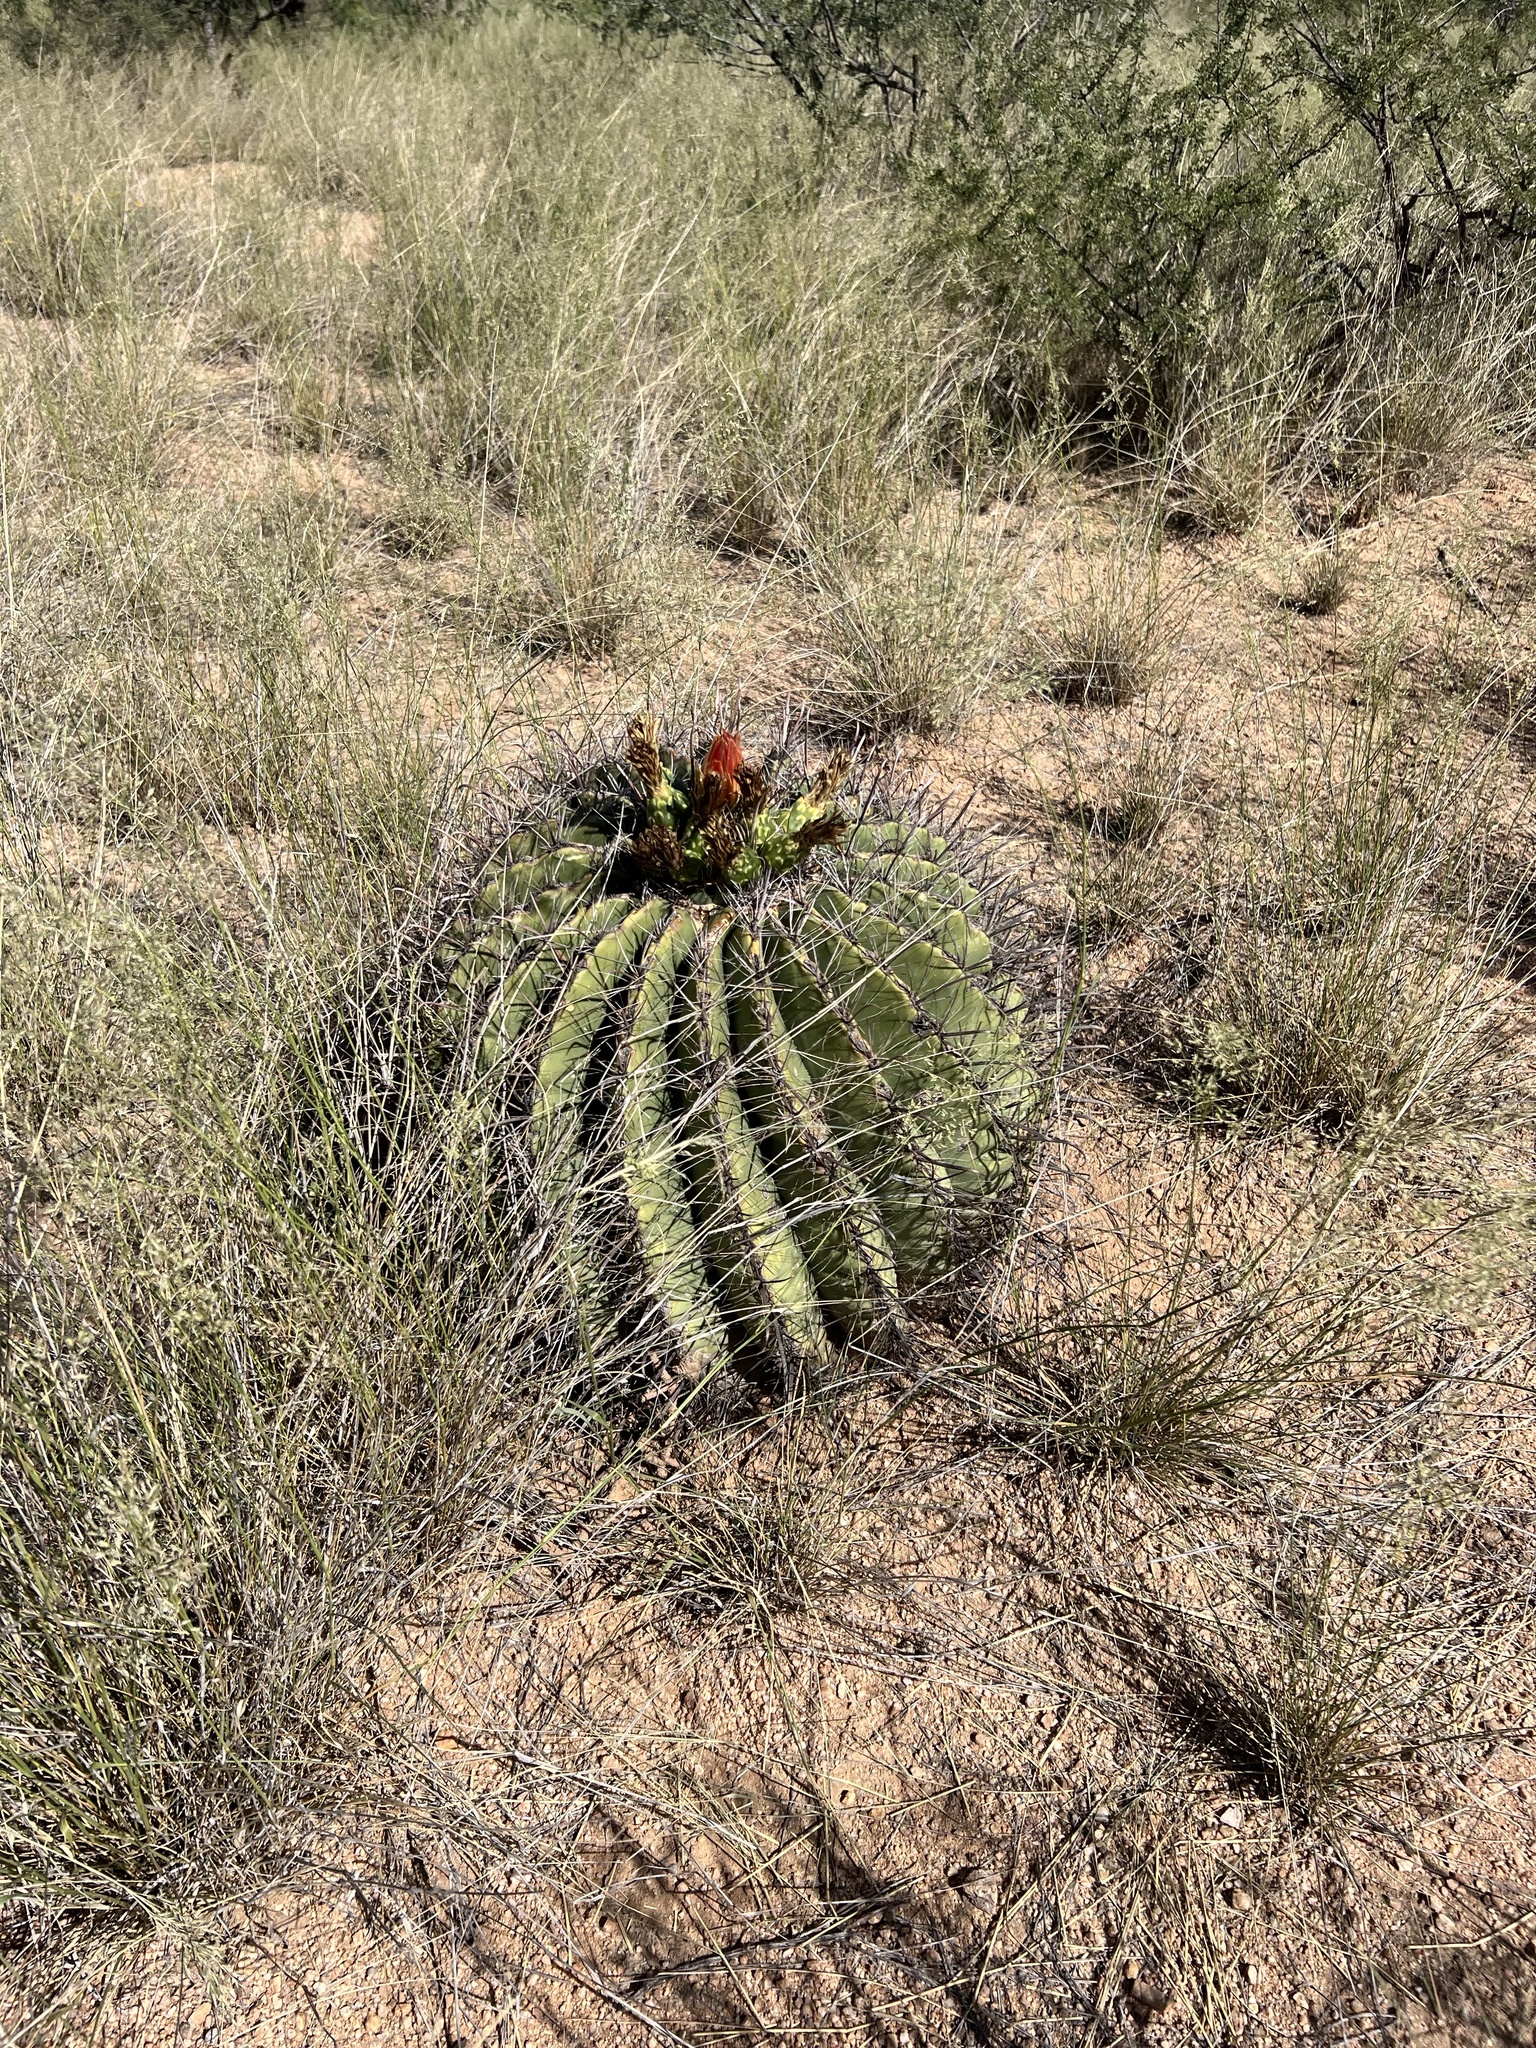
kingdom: Plantae
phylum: Tracheophyta
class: Magnoliopsida
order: Caryophyllales
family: Cactaceae
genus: Ferocactus
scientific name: Ferocactus wislizeni
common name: Candy barrel cactus
